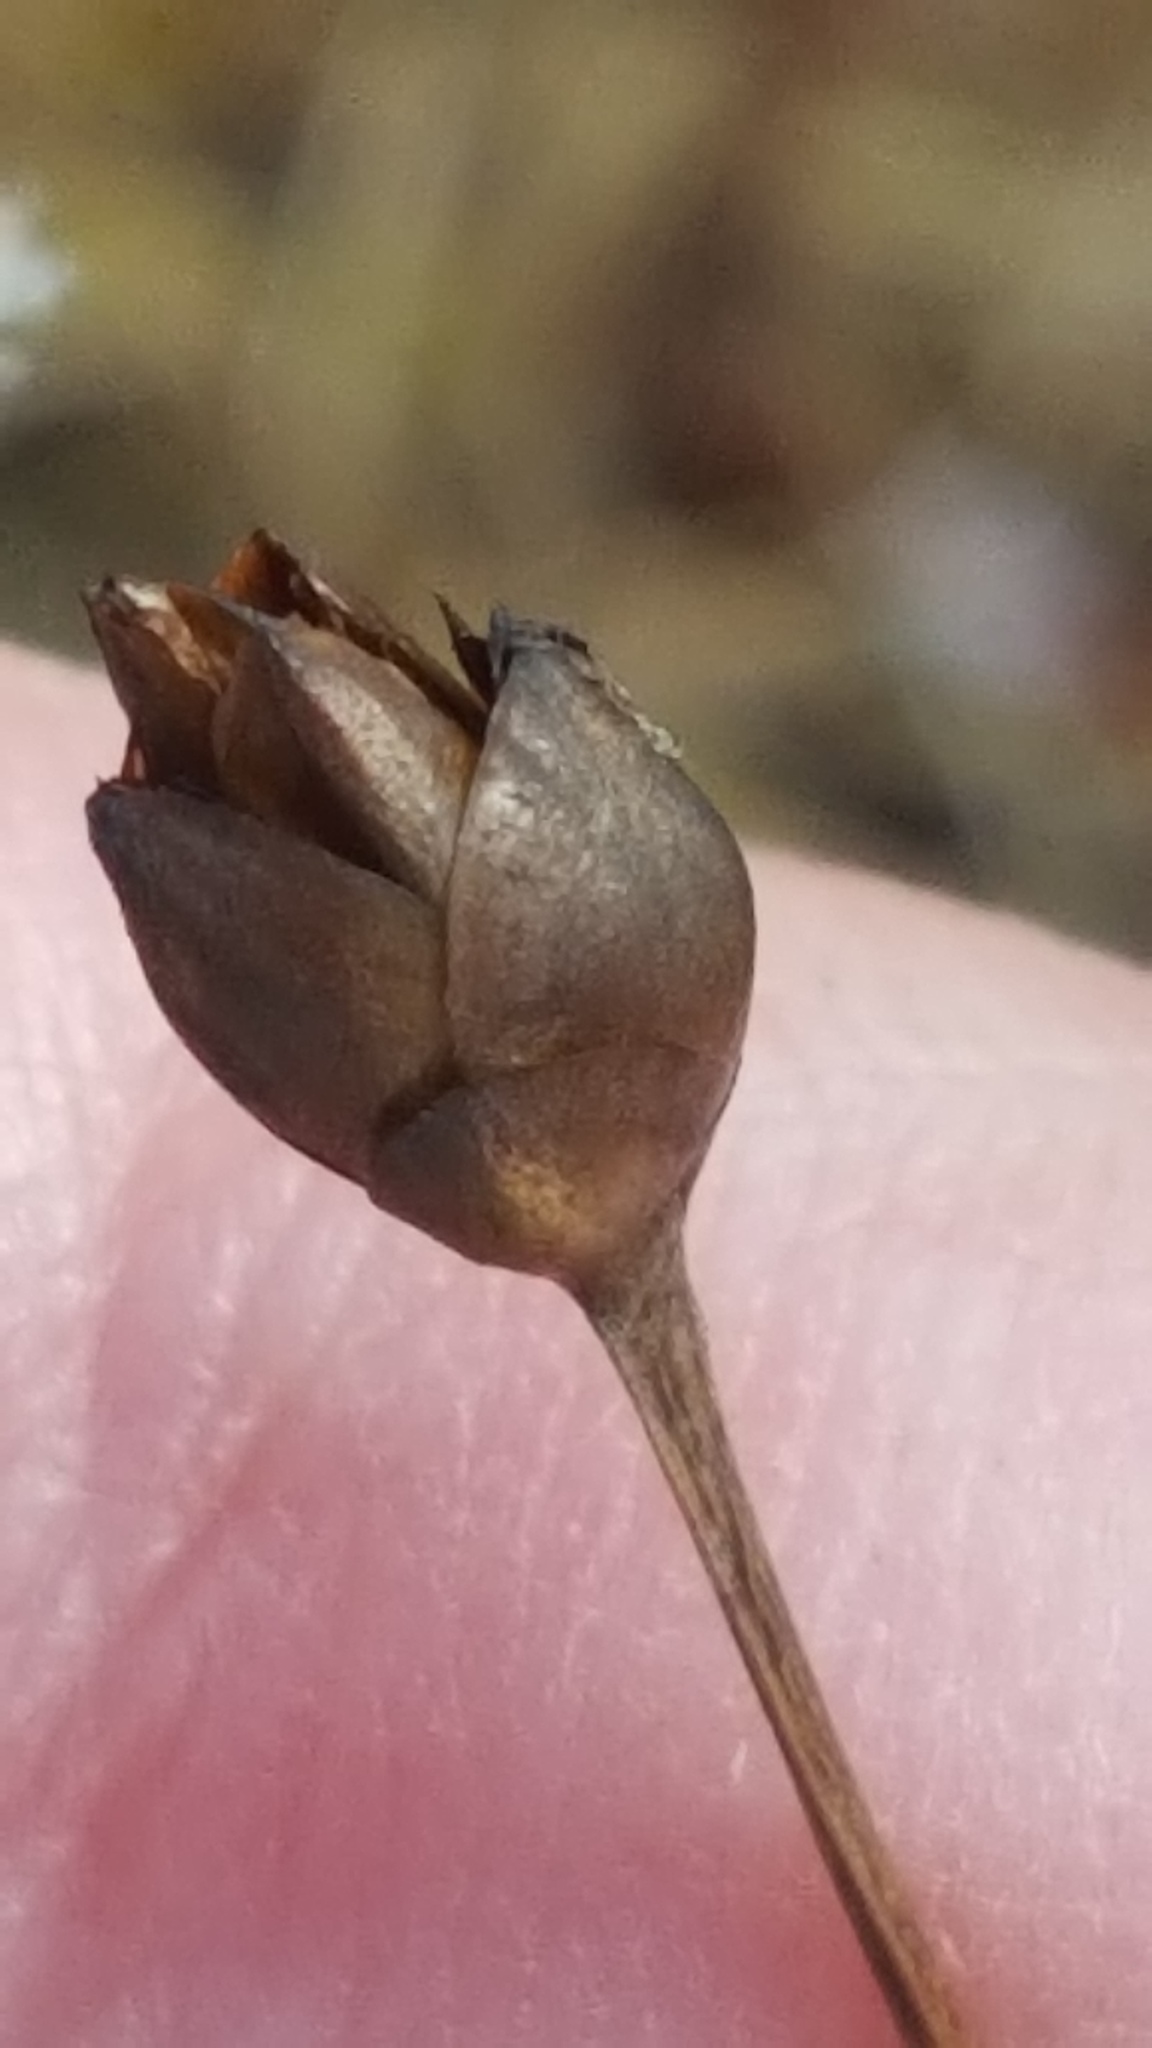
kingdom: Plantae
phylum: Tracheophyta
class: Liliopsida
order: Poales
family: Xyridaceae
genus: Xyris
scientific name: Xyris montana
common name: Northern yellow-eyed-grass
